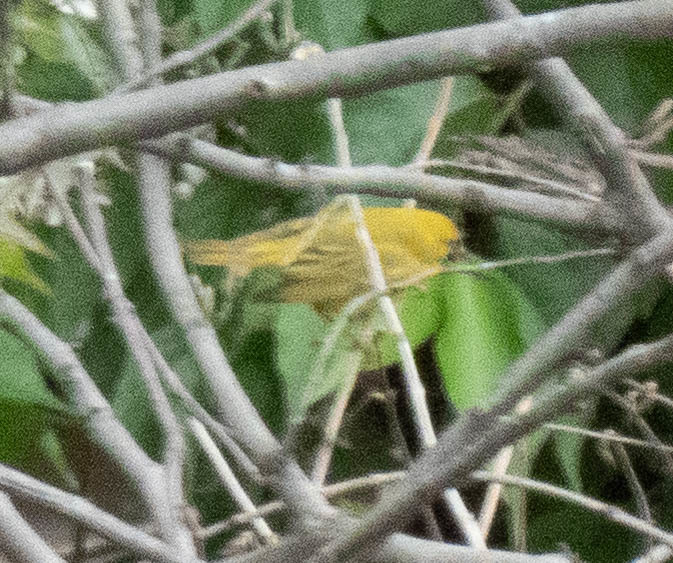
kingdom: Animalia
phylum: Chordata
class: Aves
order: Passeriformes
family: Parulidae
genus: Setophaga
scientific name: Setophaga petechia
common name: Yellow warbler
